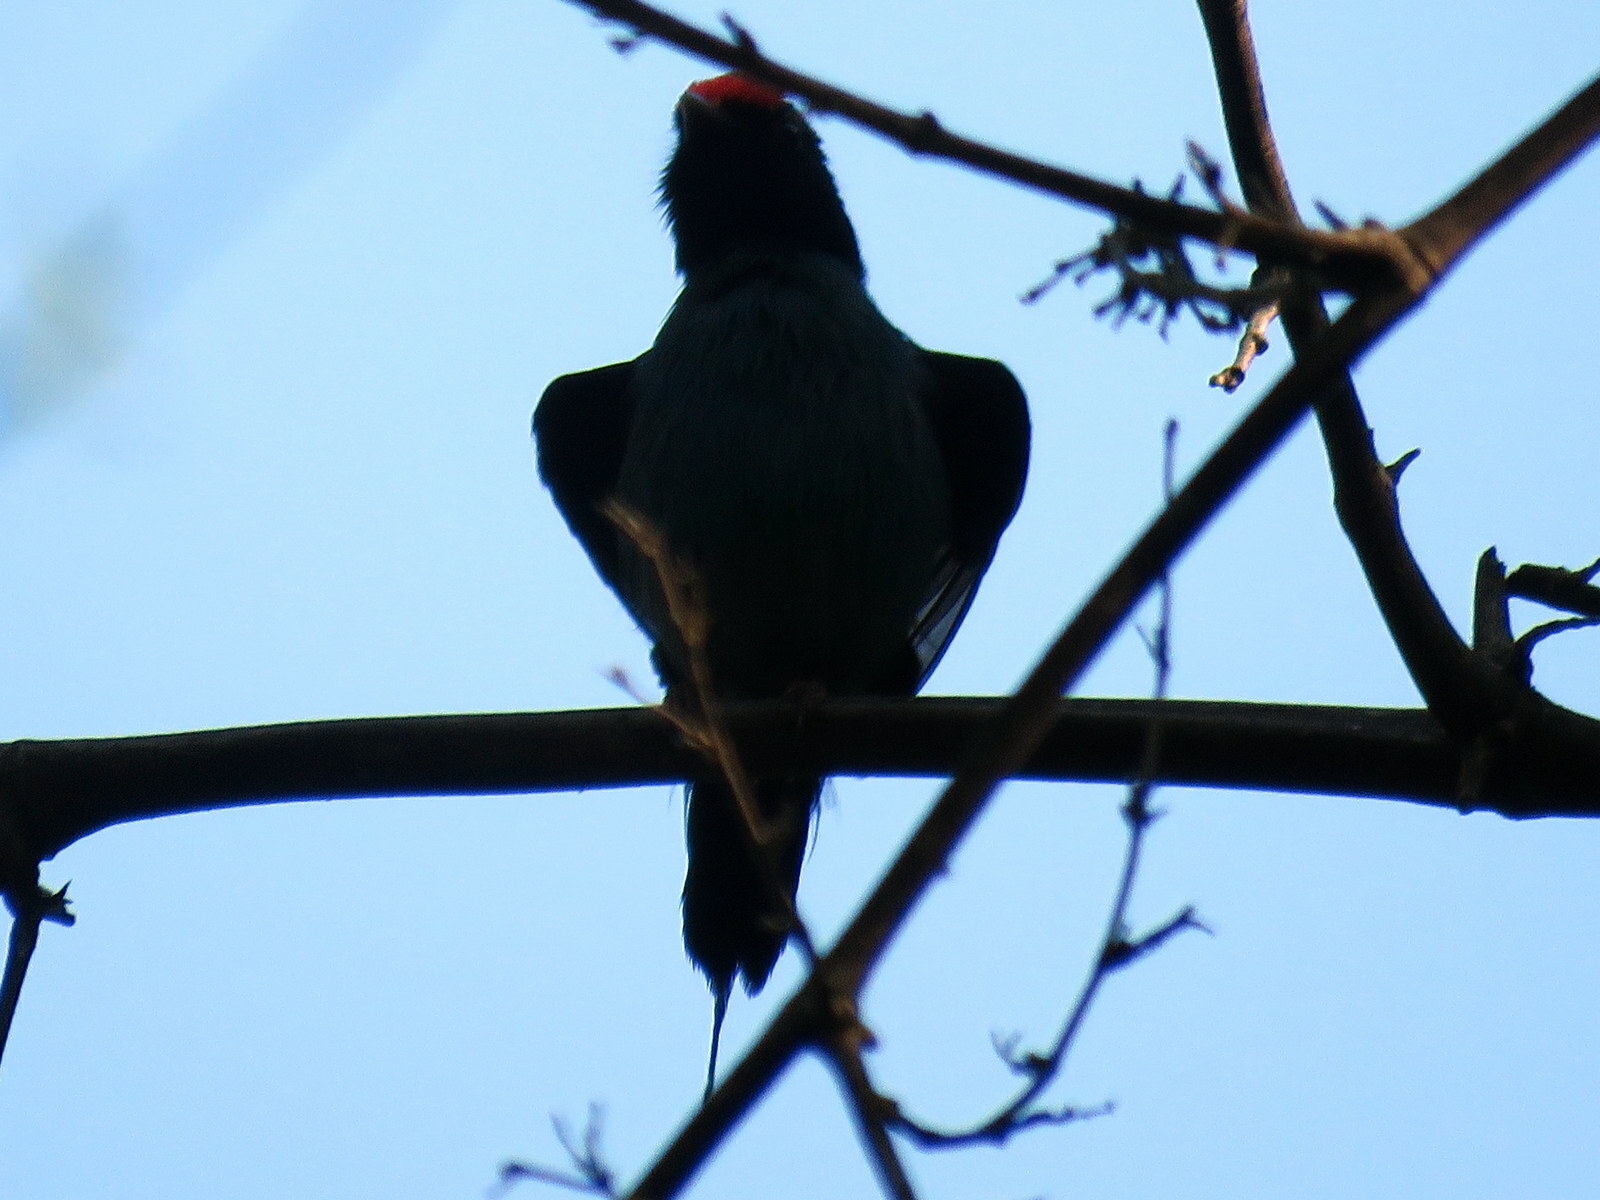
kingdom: Animalia
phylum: Chordata
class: Aves
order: Passeriformes
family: Pipridae
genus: Chiroxiphia
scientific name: Chiroxiphia caudata
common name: Blue manakin
